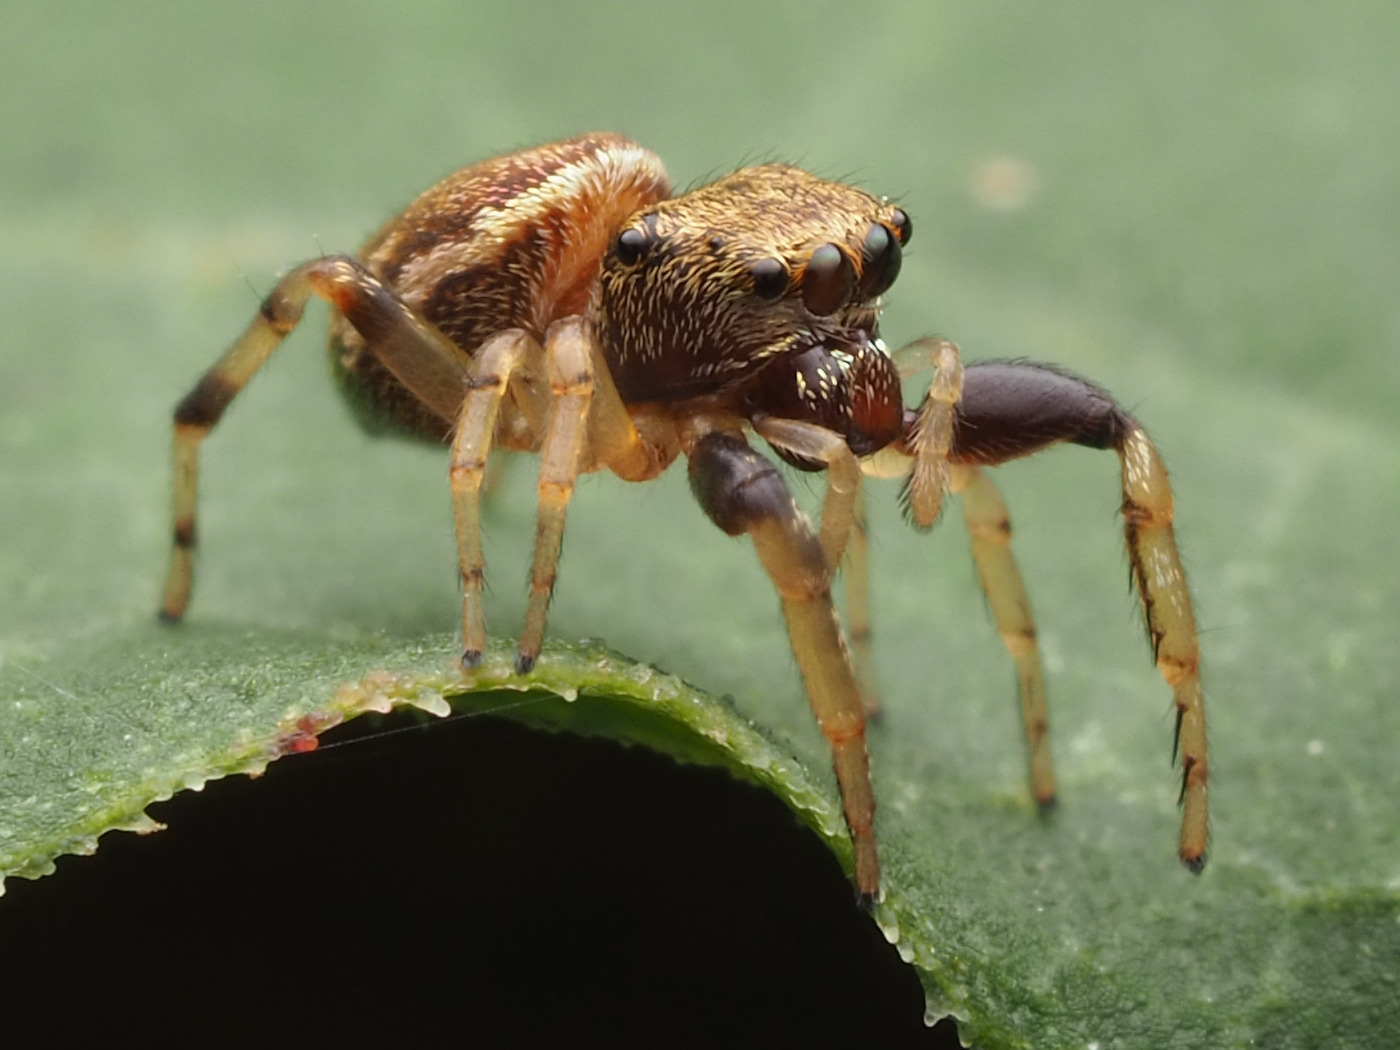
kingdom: Animalia
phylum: Arthropoda
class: Arachnida
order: Araneae
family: Salticidae
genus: Zygoballus
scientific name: Zygoballus rufipes
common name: Jumping spiders
